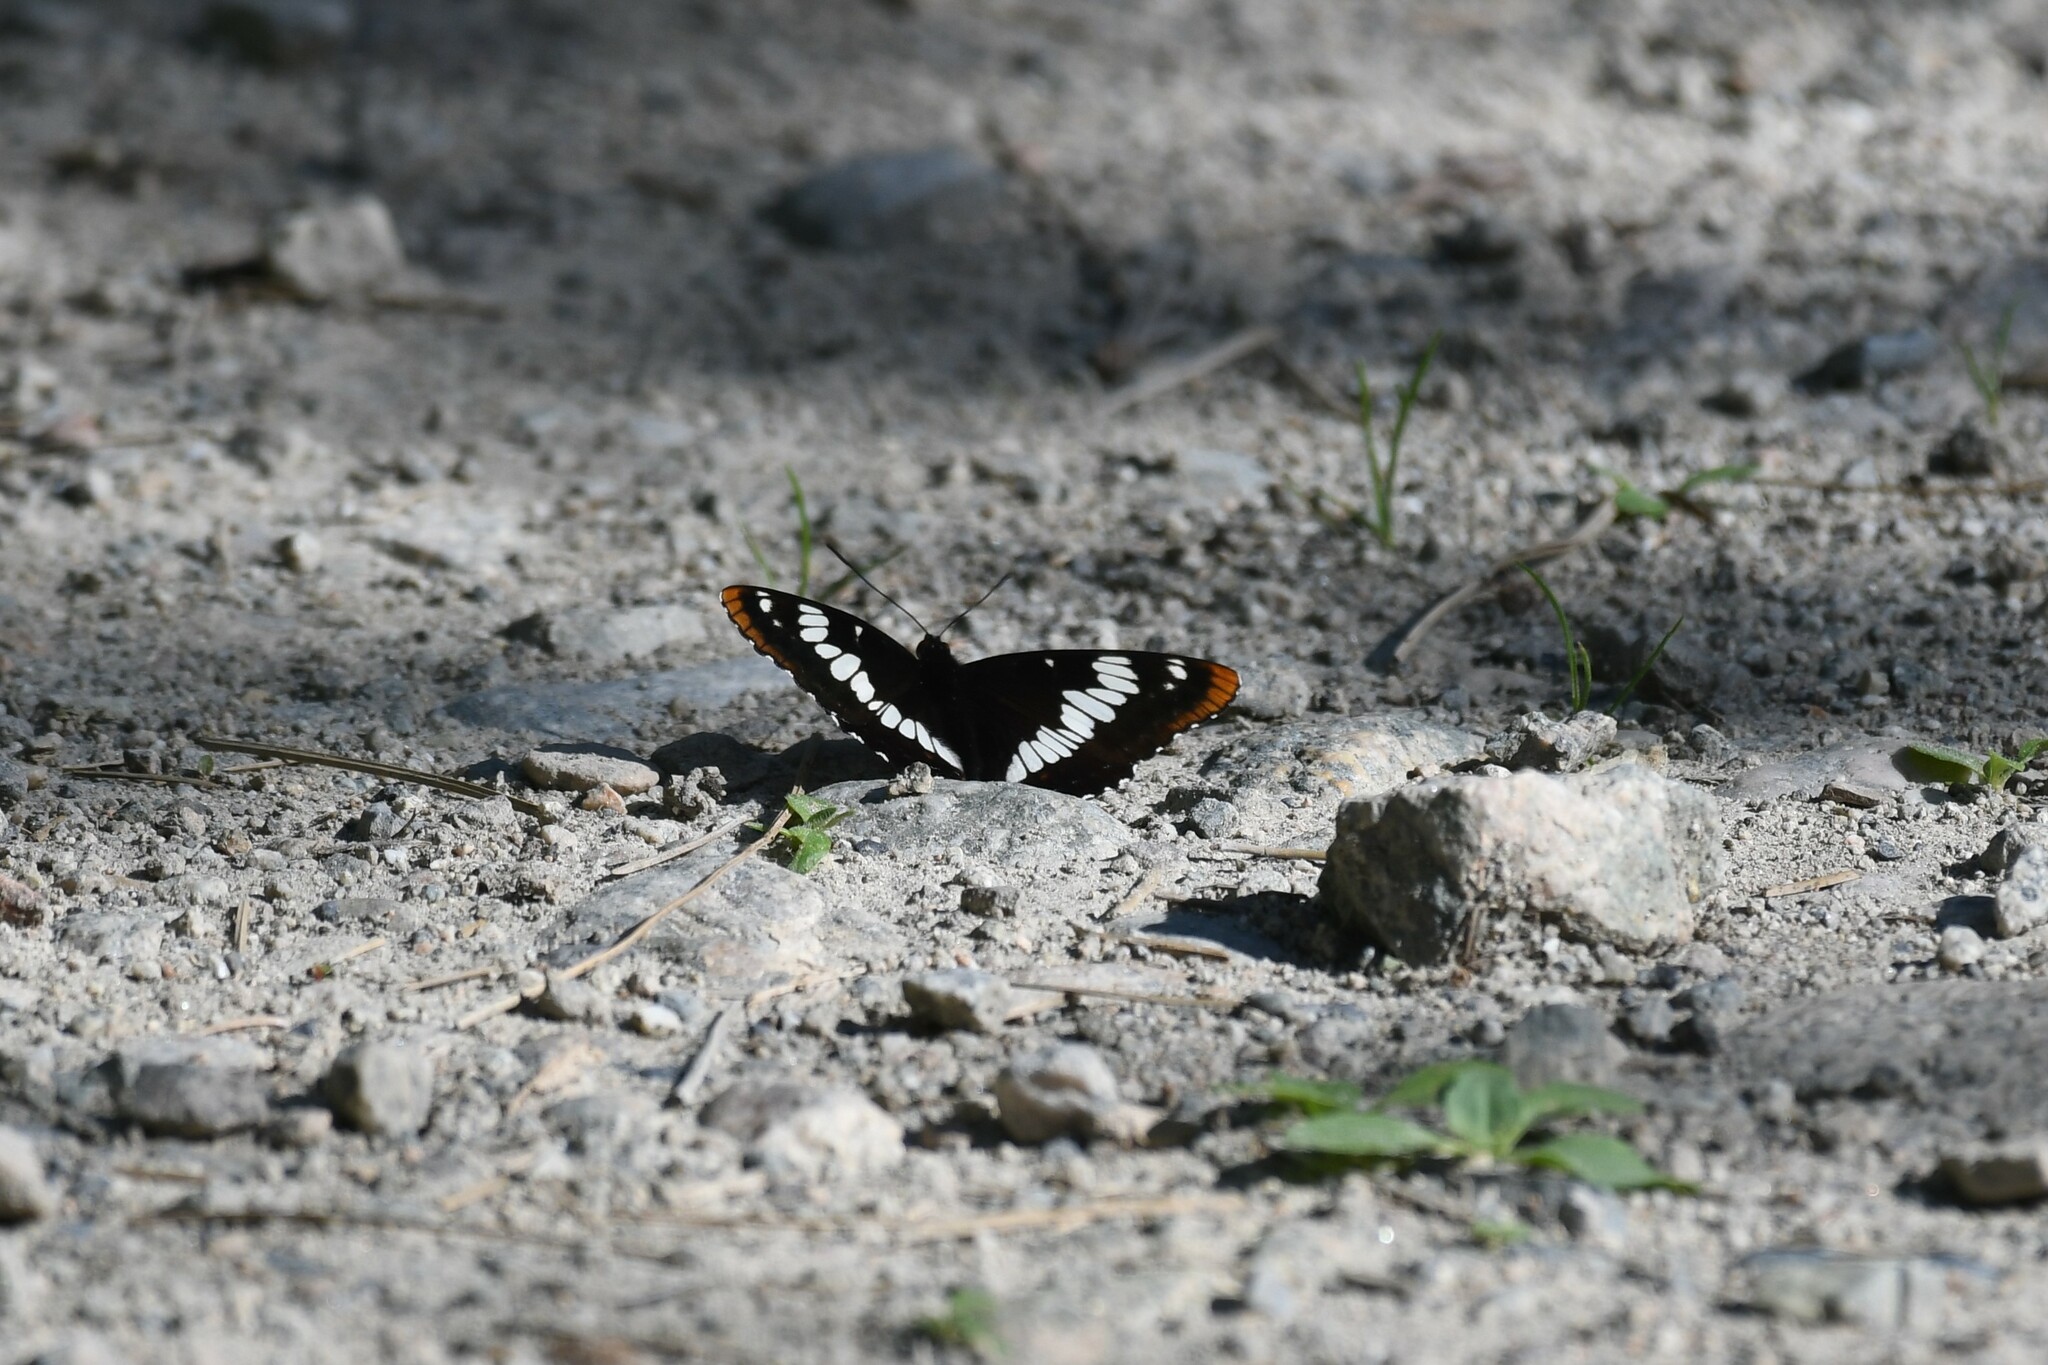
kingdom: Animalia
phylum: Arthropoda
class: Insecta
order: Lepidoptera
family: Nymphalidae
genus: Limenitis
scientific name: Limenitis lorquini
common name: Lorquin's admiral
